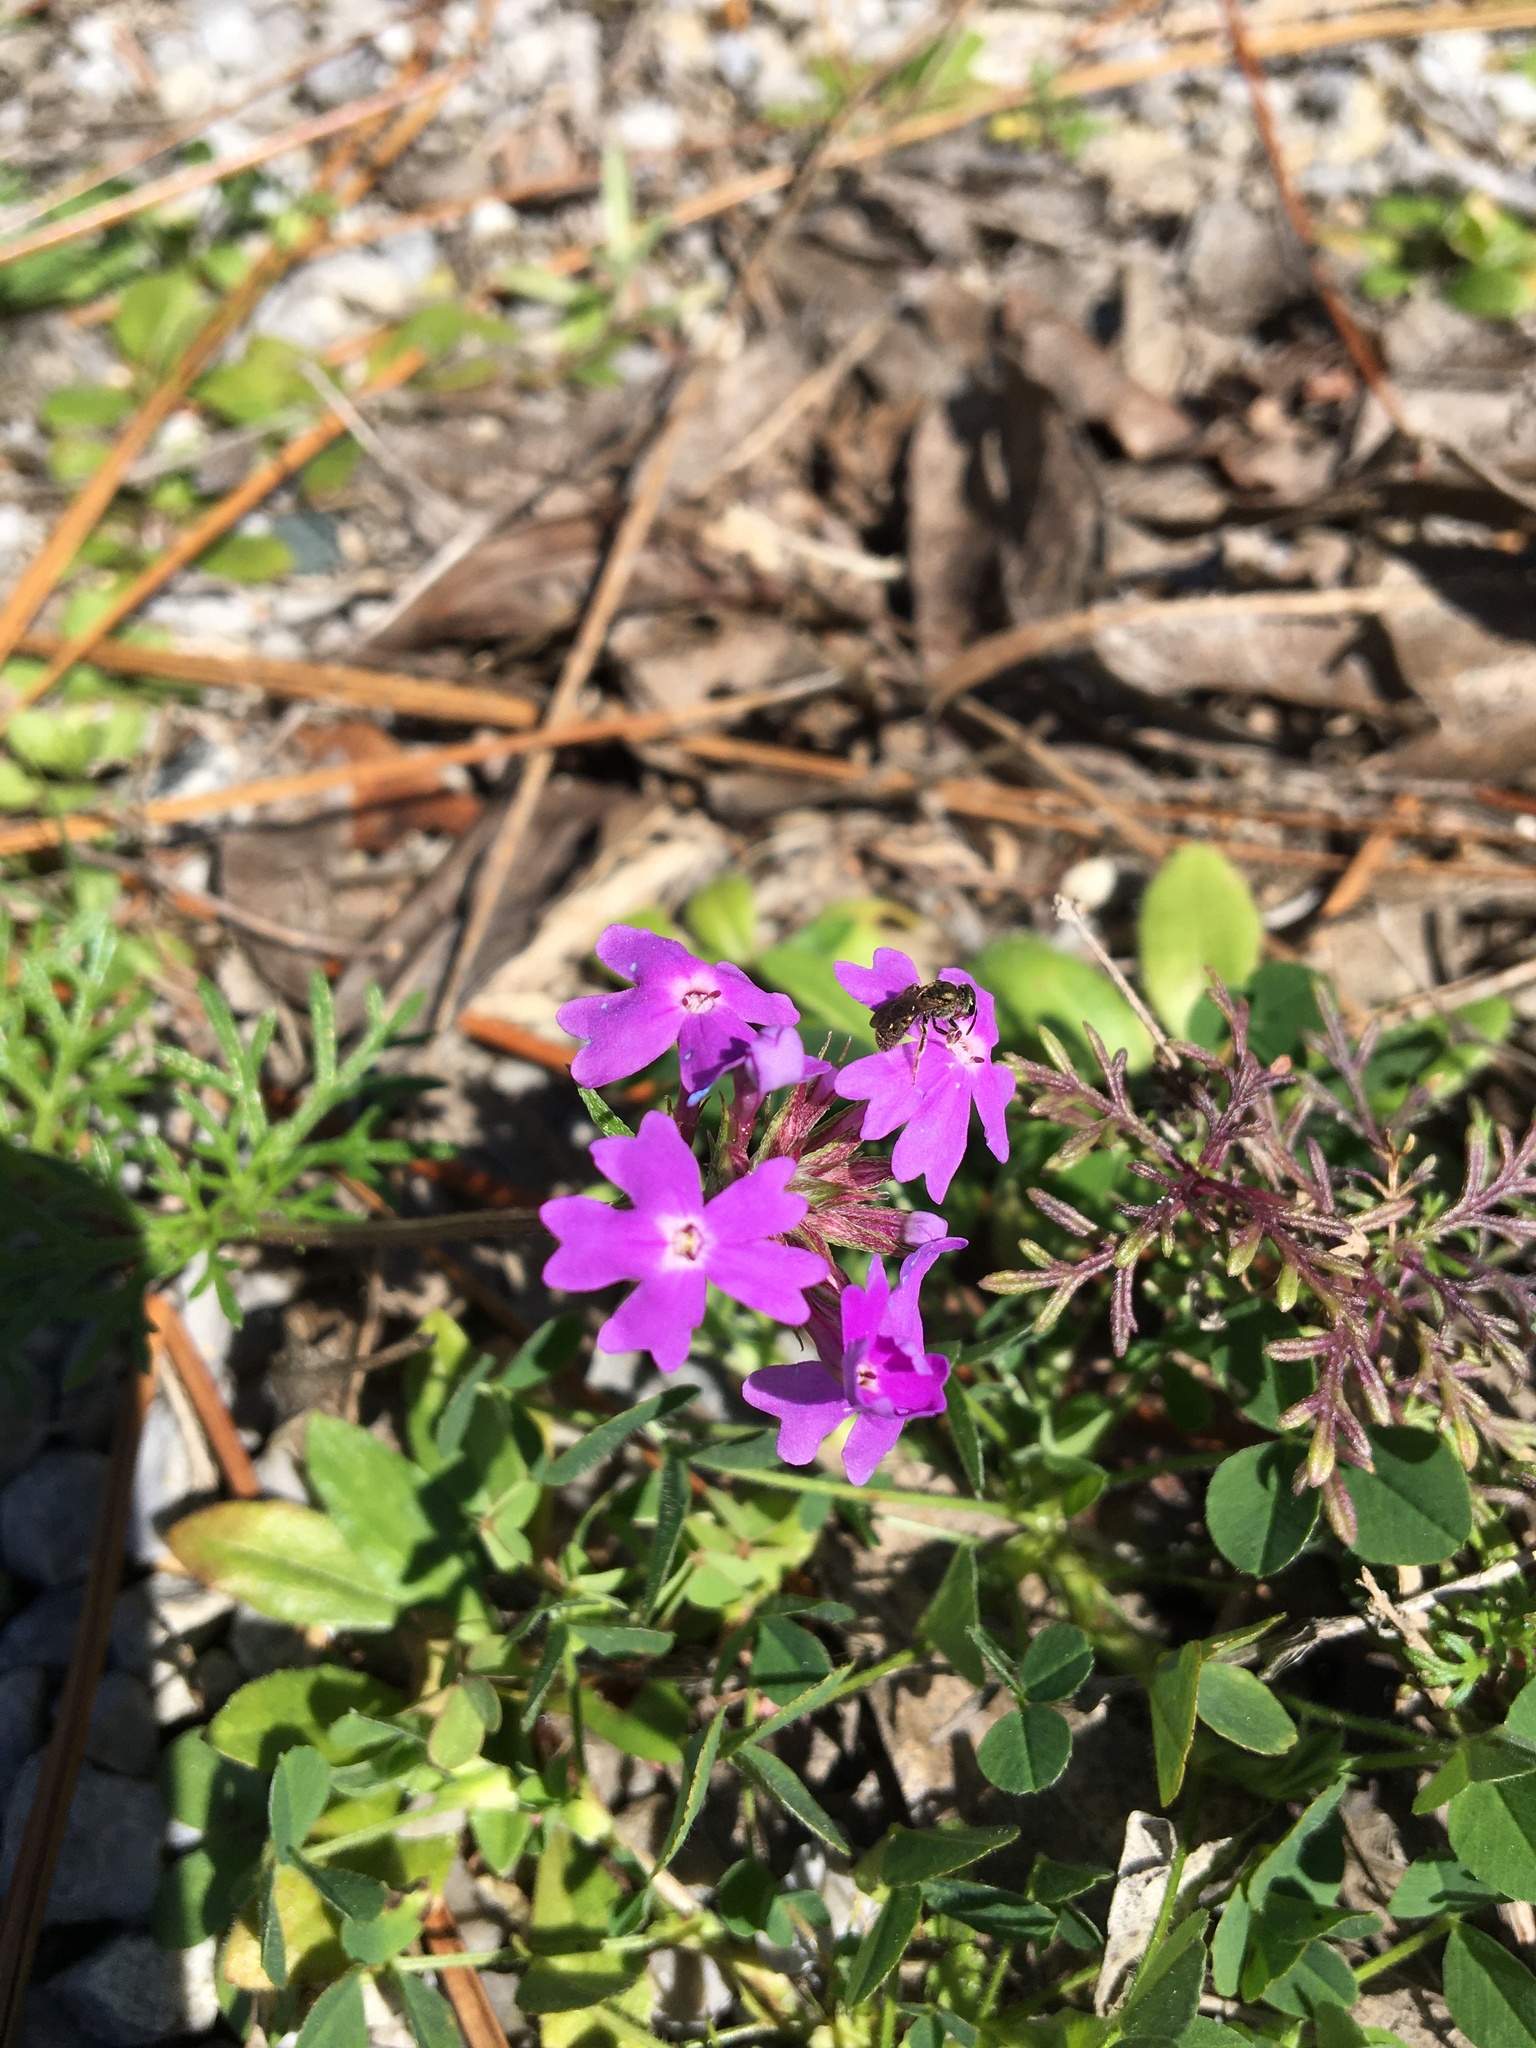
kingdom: Plantae
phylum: Tracheophyta
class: Magnoliopsida
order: Lamiales
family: Verbenaceae
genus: Verbena
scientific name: Verbena aristigera
